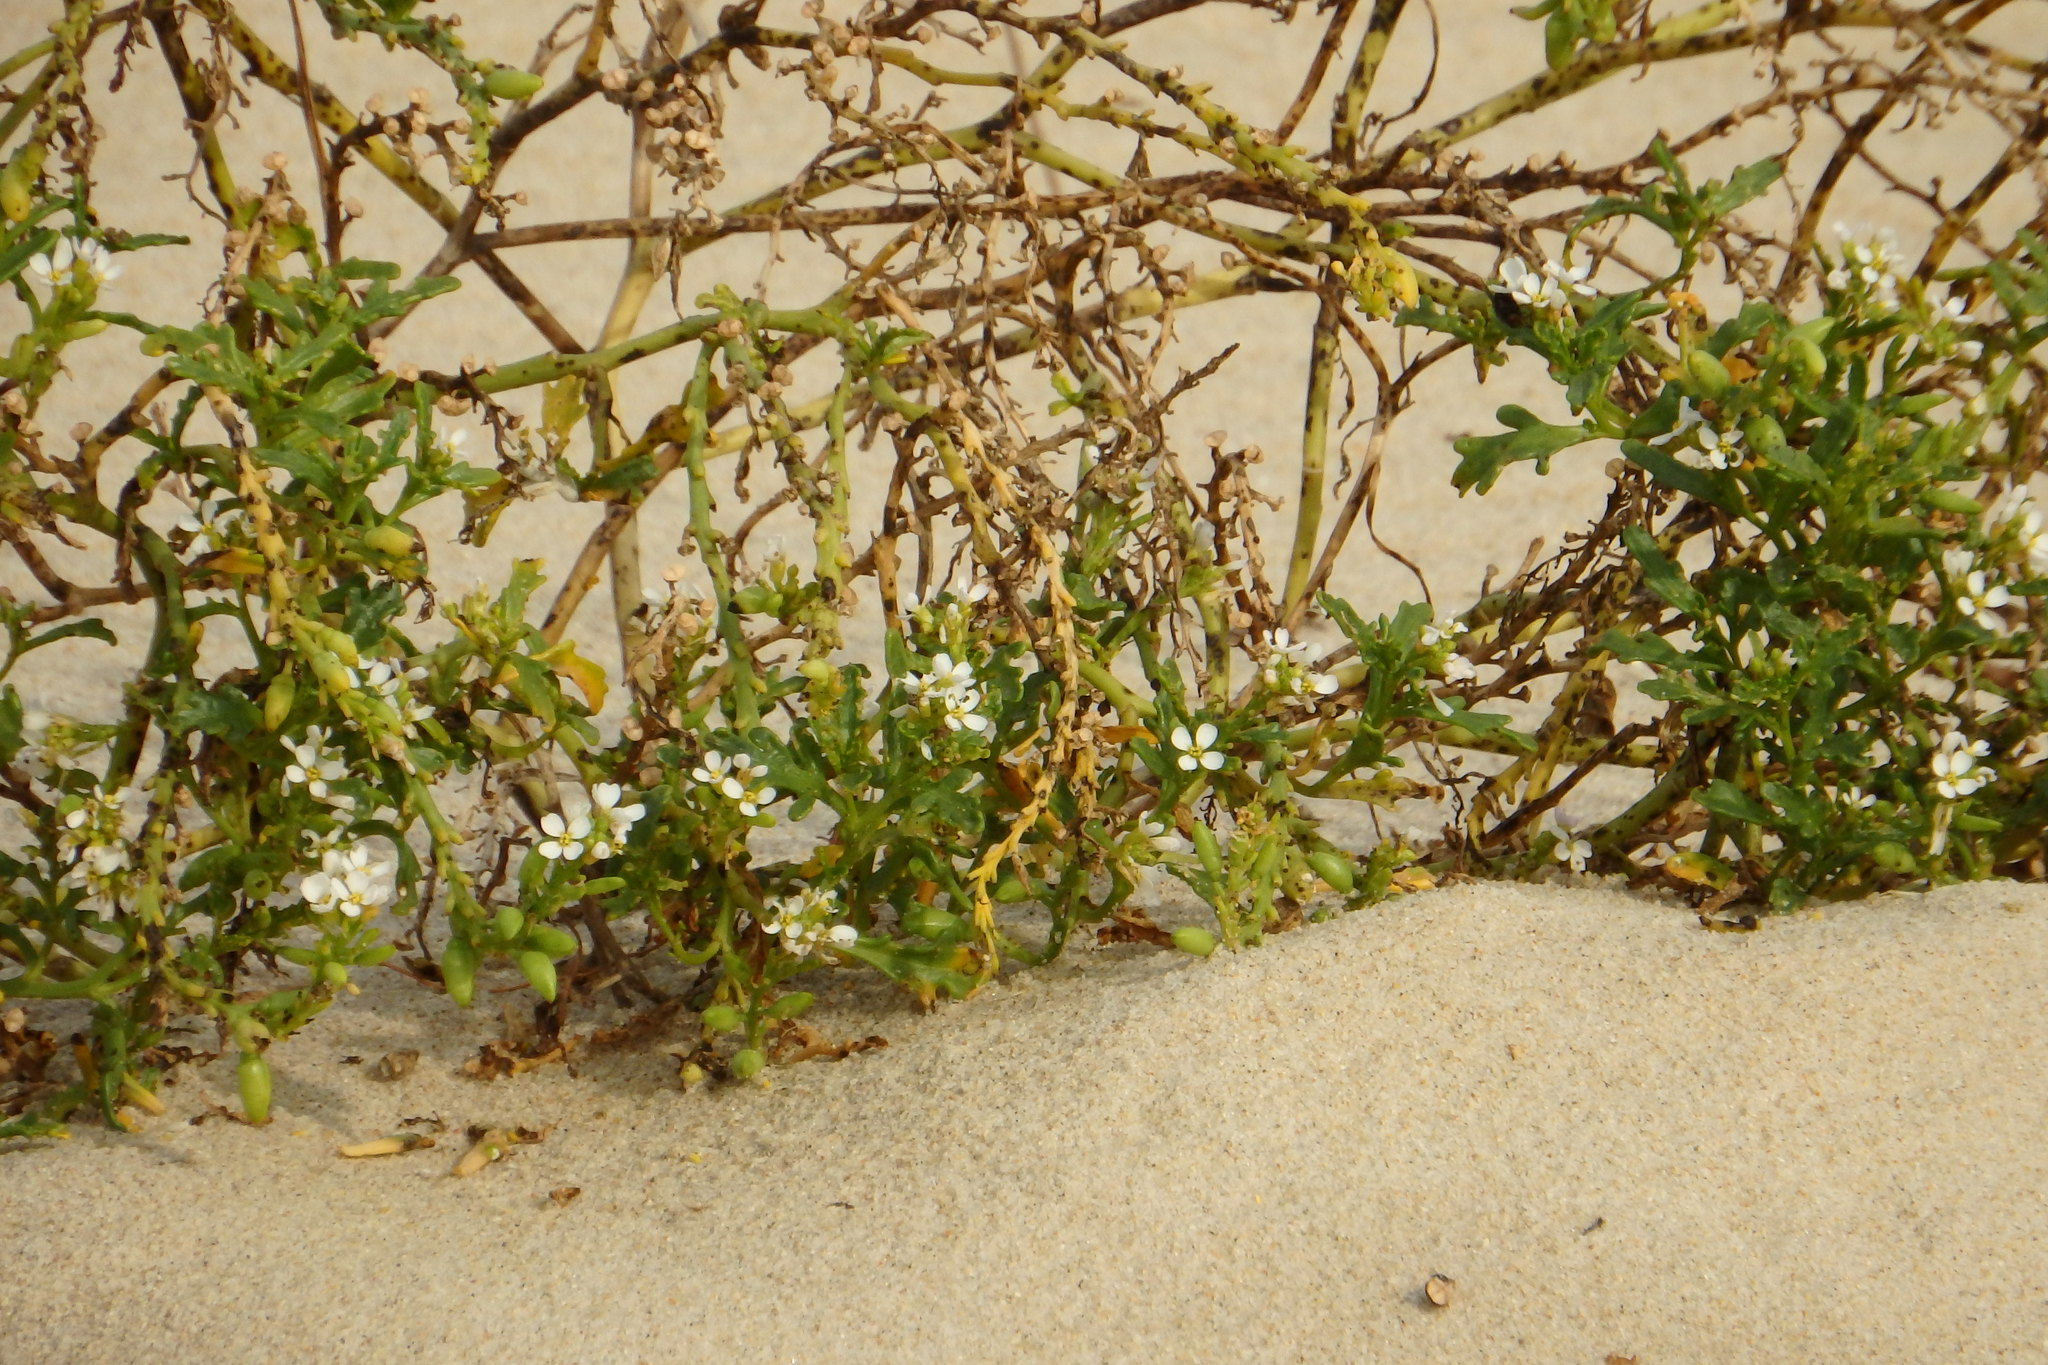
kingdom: Plantae
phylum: Tracheophyta
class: Magnoliopsida
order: Brassicales
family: Brassicaceae
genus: Cakile
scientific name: Cakile maritima
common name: Sea rocket
